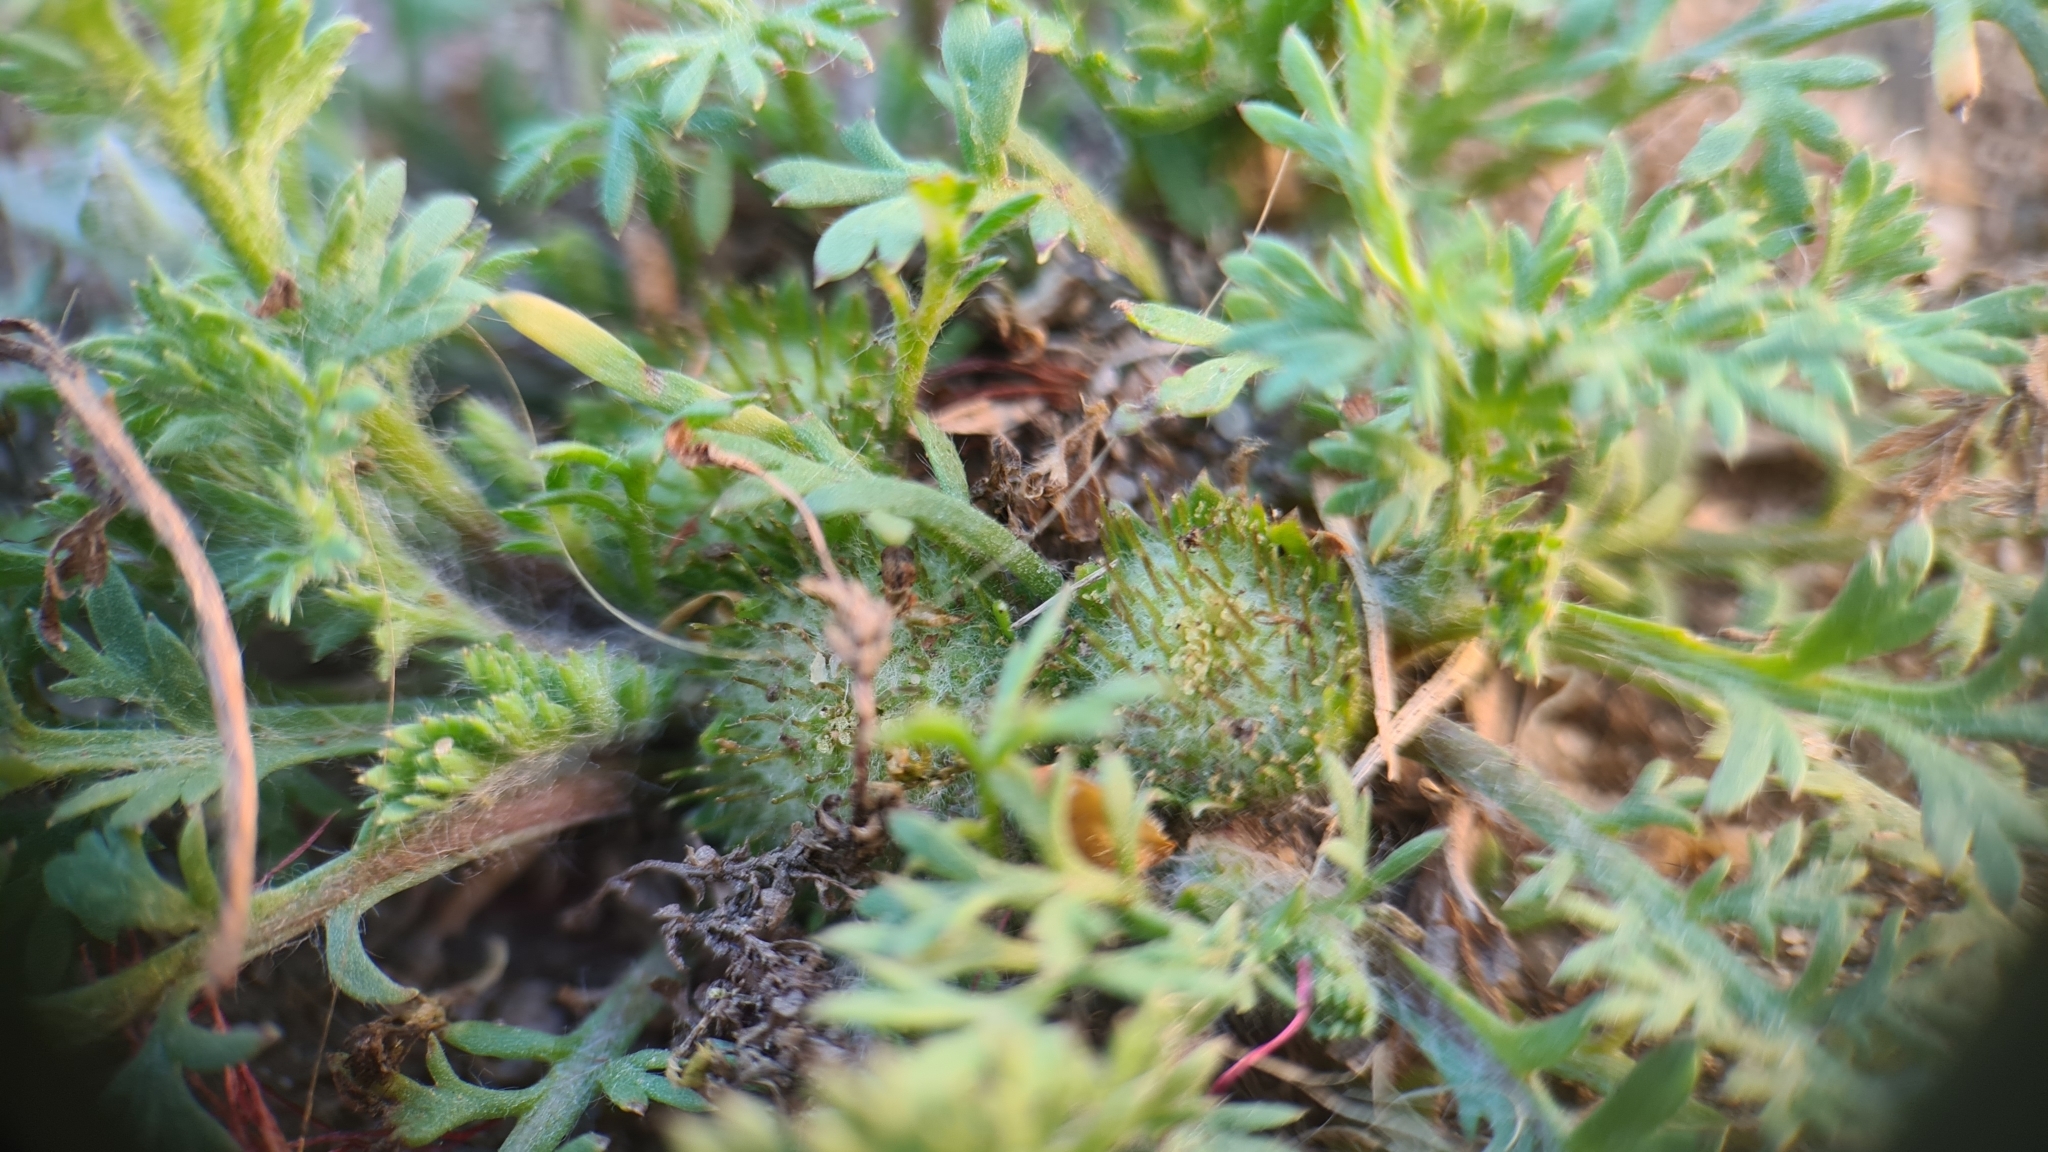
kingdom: Plantae
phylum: Tracheophyta
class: Magnoliopsida
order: Asterales
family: Asteraceae
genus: Soliva
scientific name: Soliva anthemifolia
